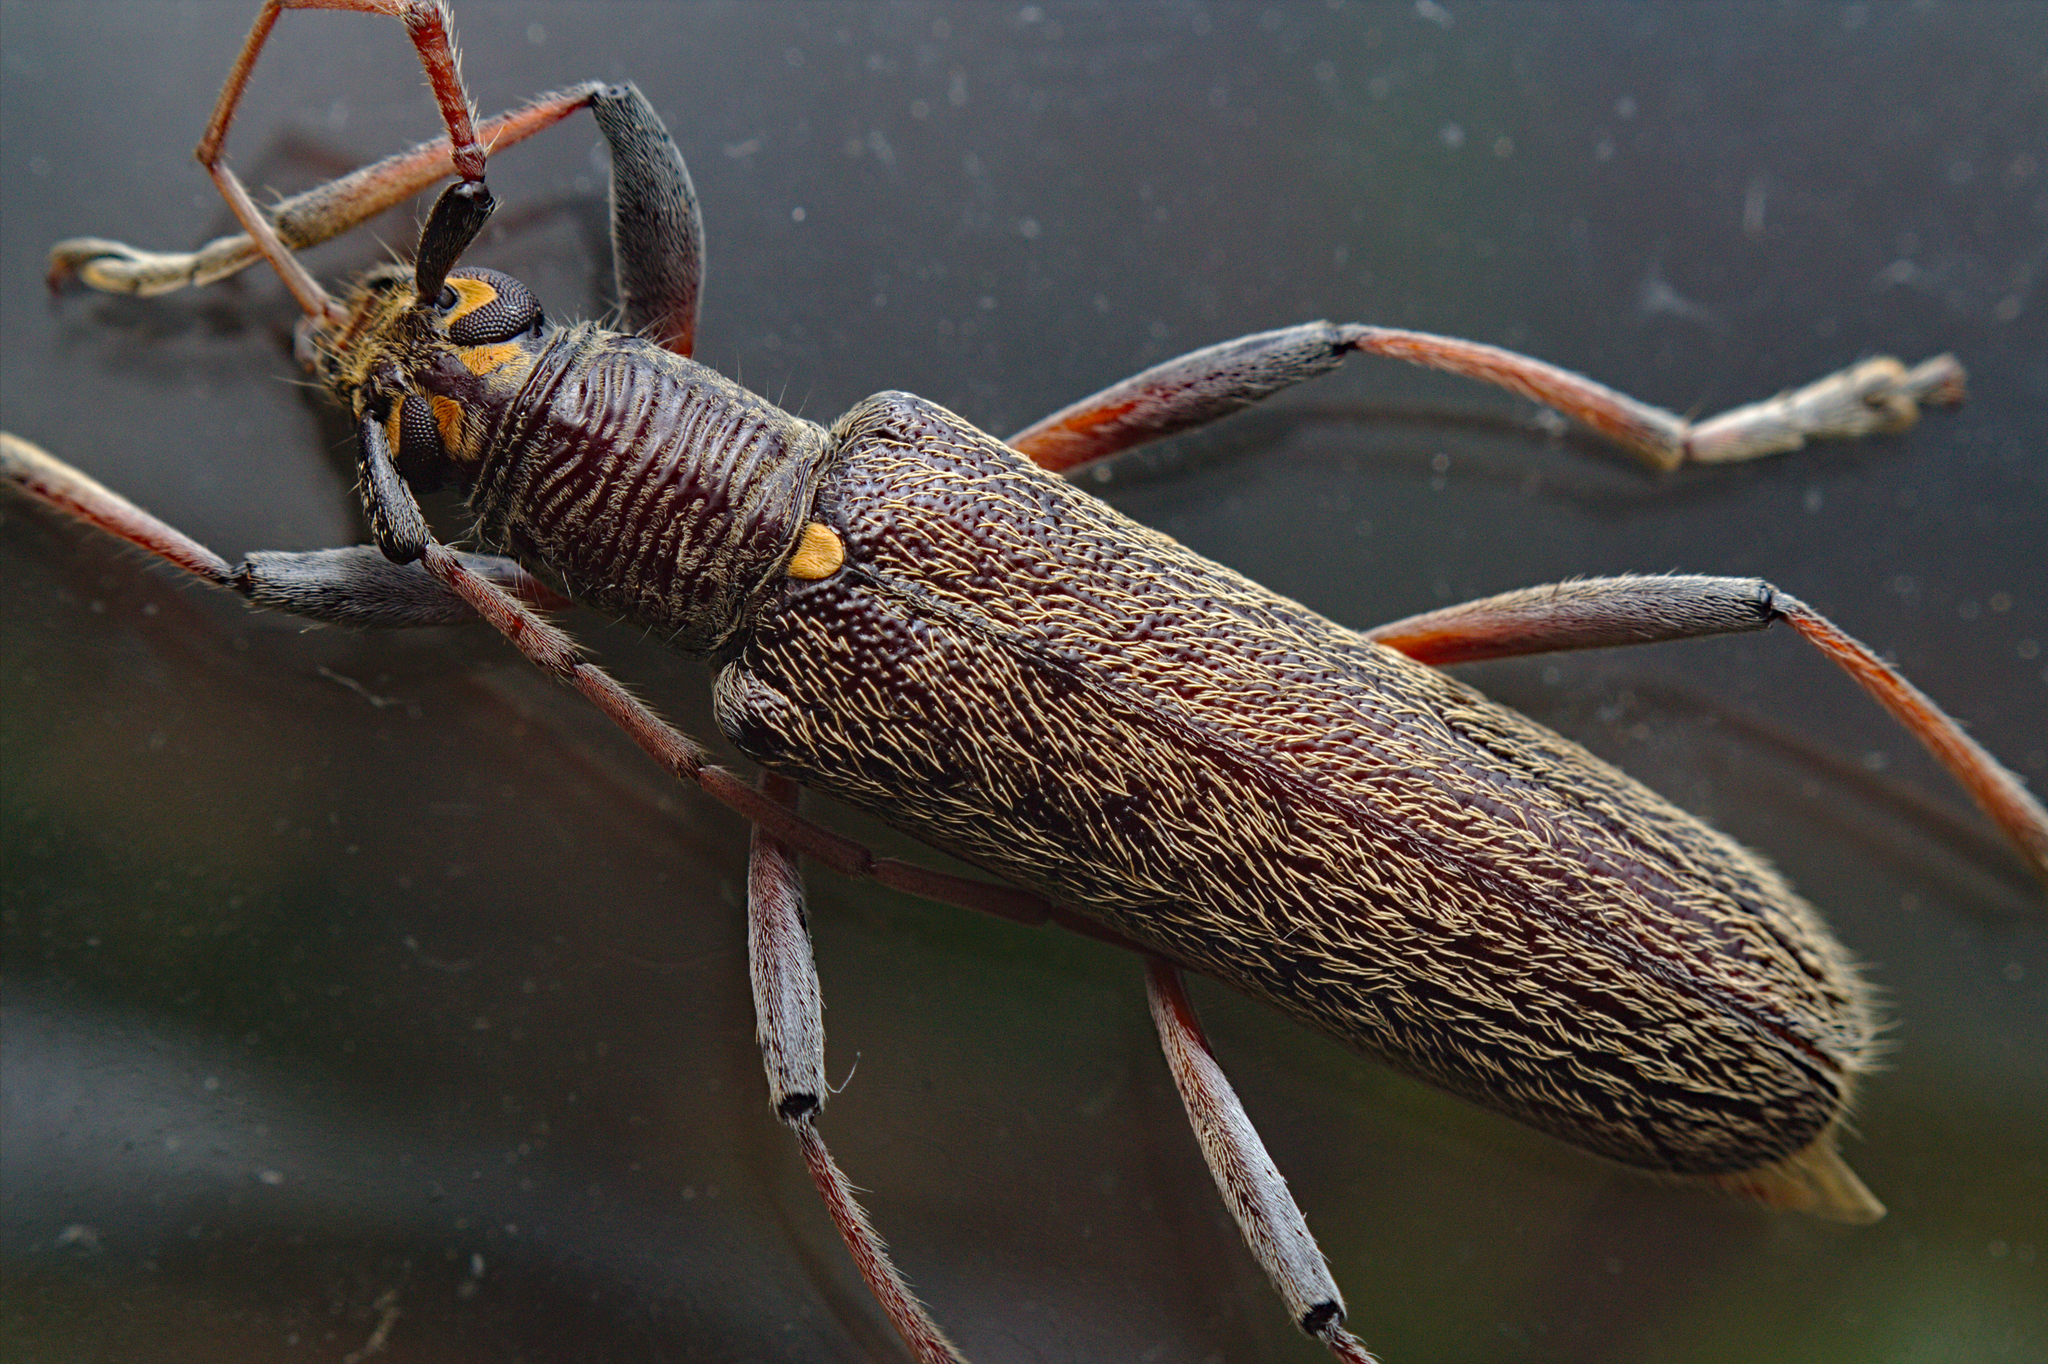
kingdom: Animalia
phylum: Arthropoda
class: Insecta
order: Coleoptera
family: Cerambycidae
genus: Oemona
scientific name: Oemona hirta
